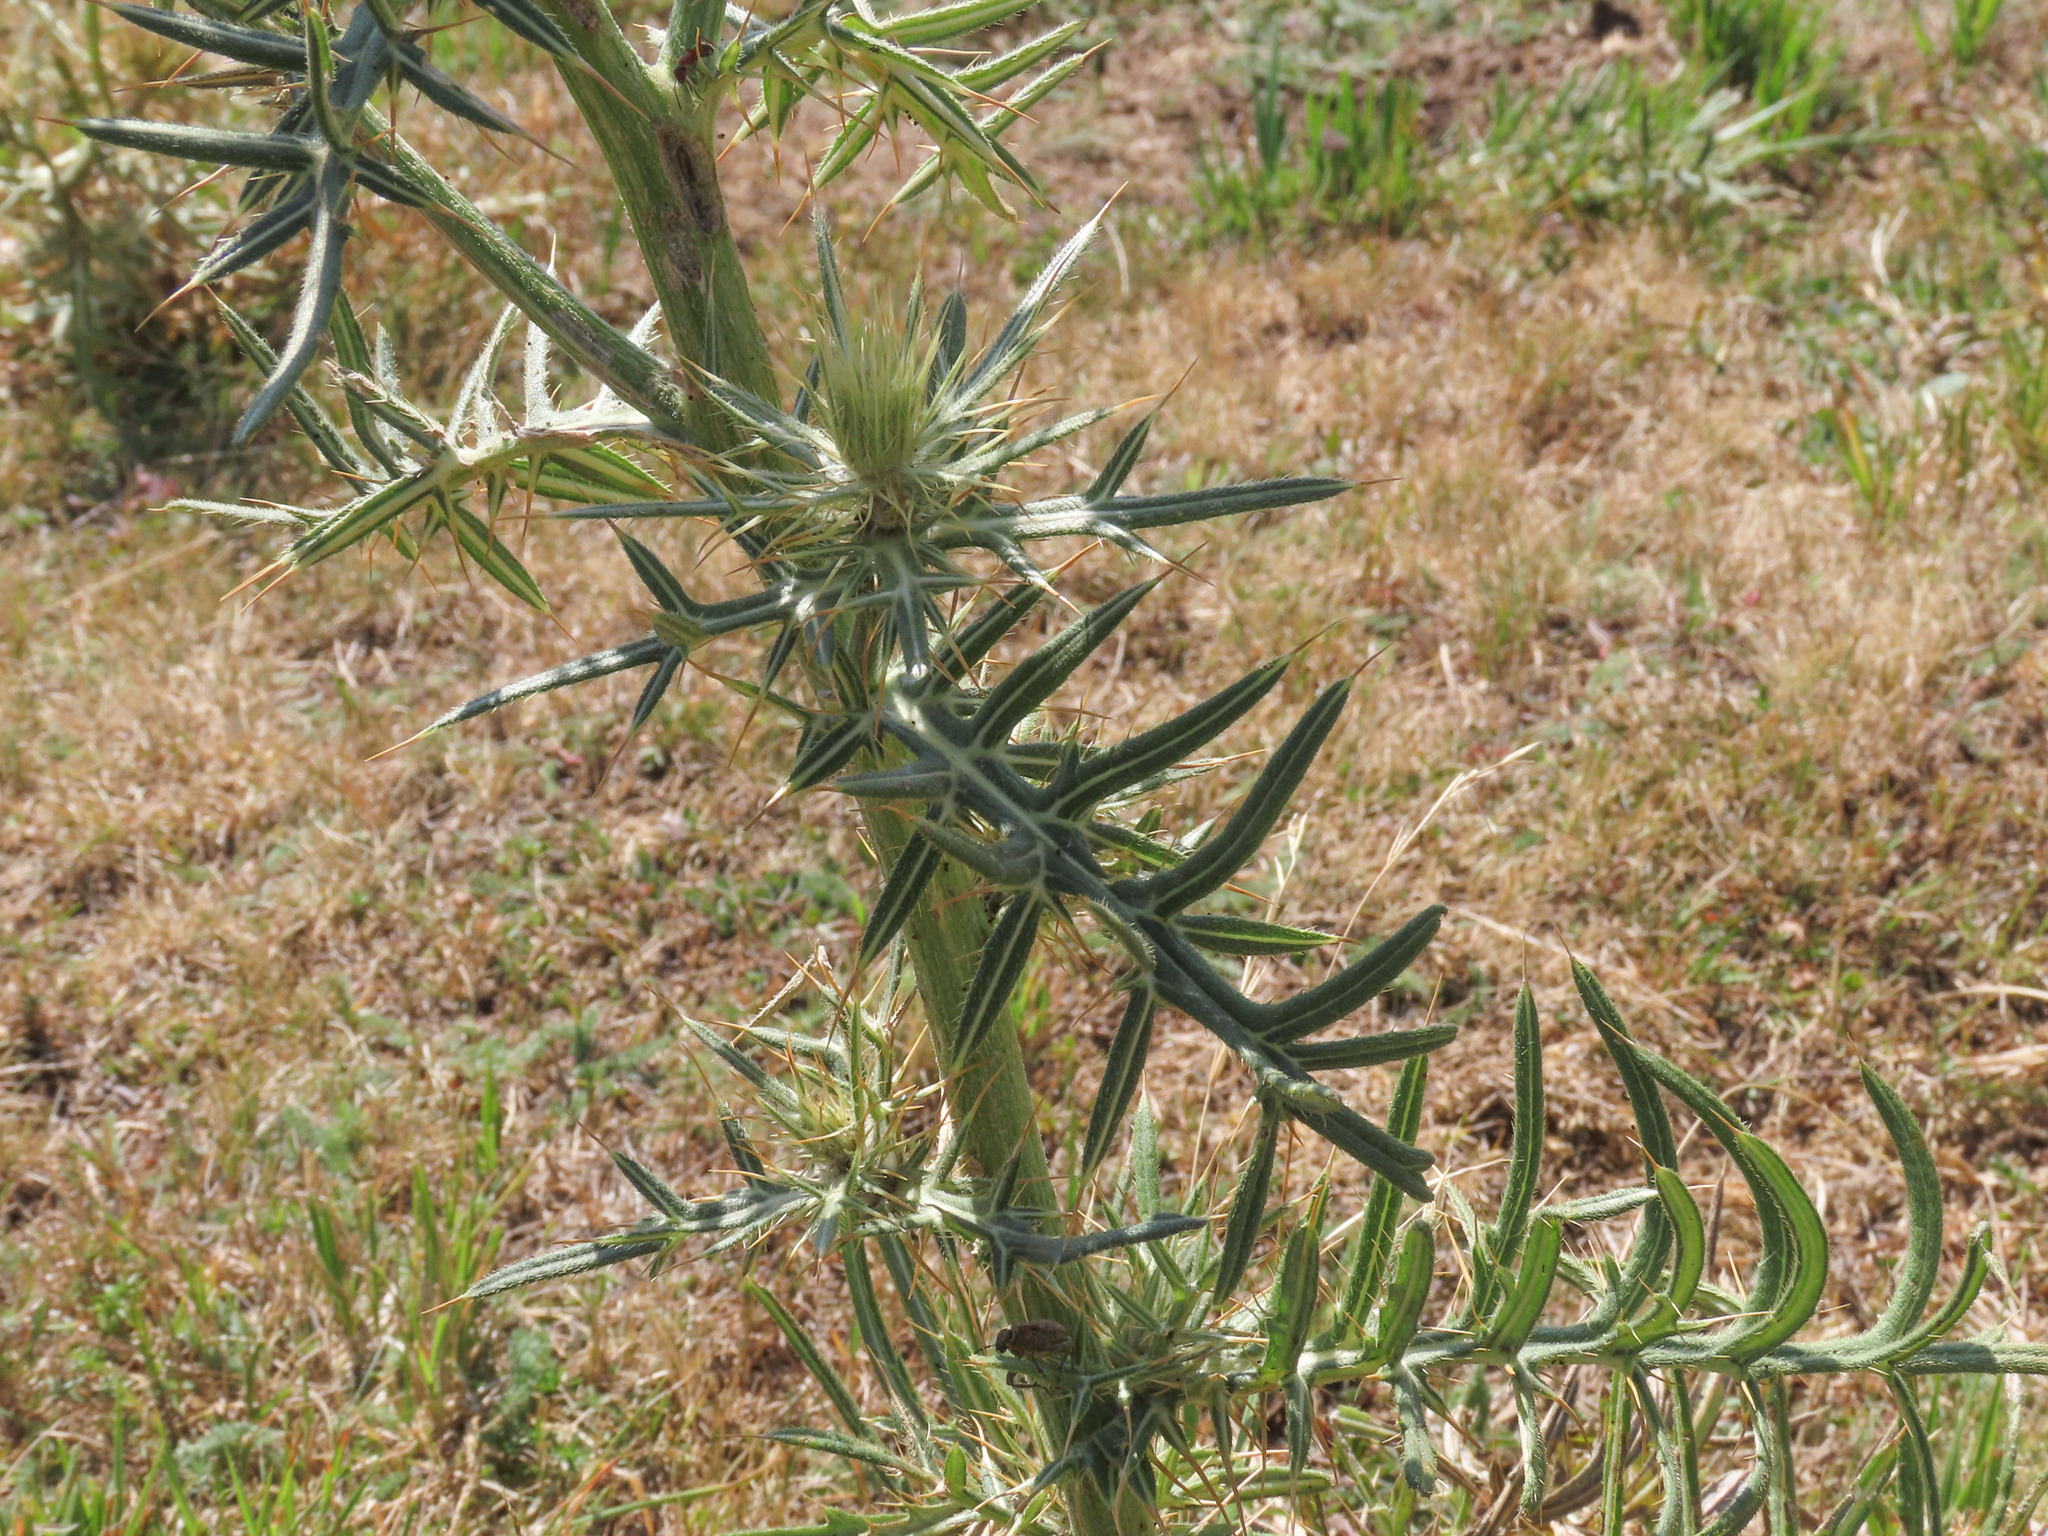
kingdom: Plantae
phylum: Tracheophyta
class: Magnoliopsida
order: Asterales
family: Asteraceae
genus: Lophiolepis
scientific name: Lophiolepis lobelii
